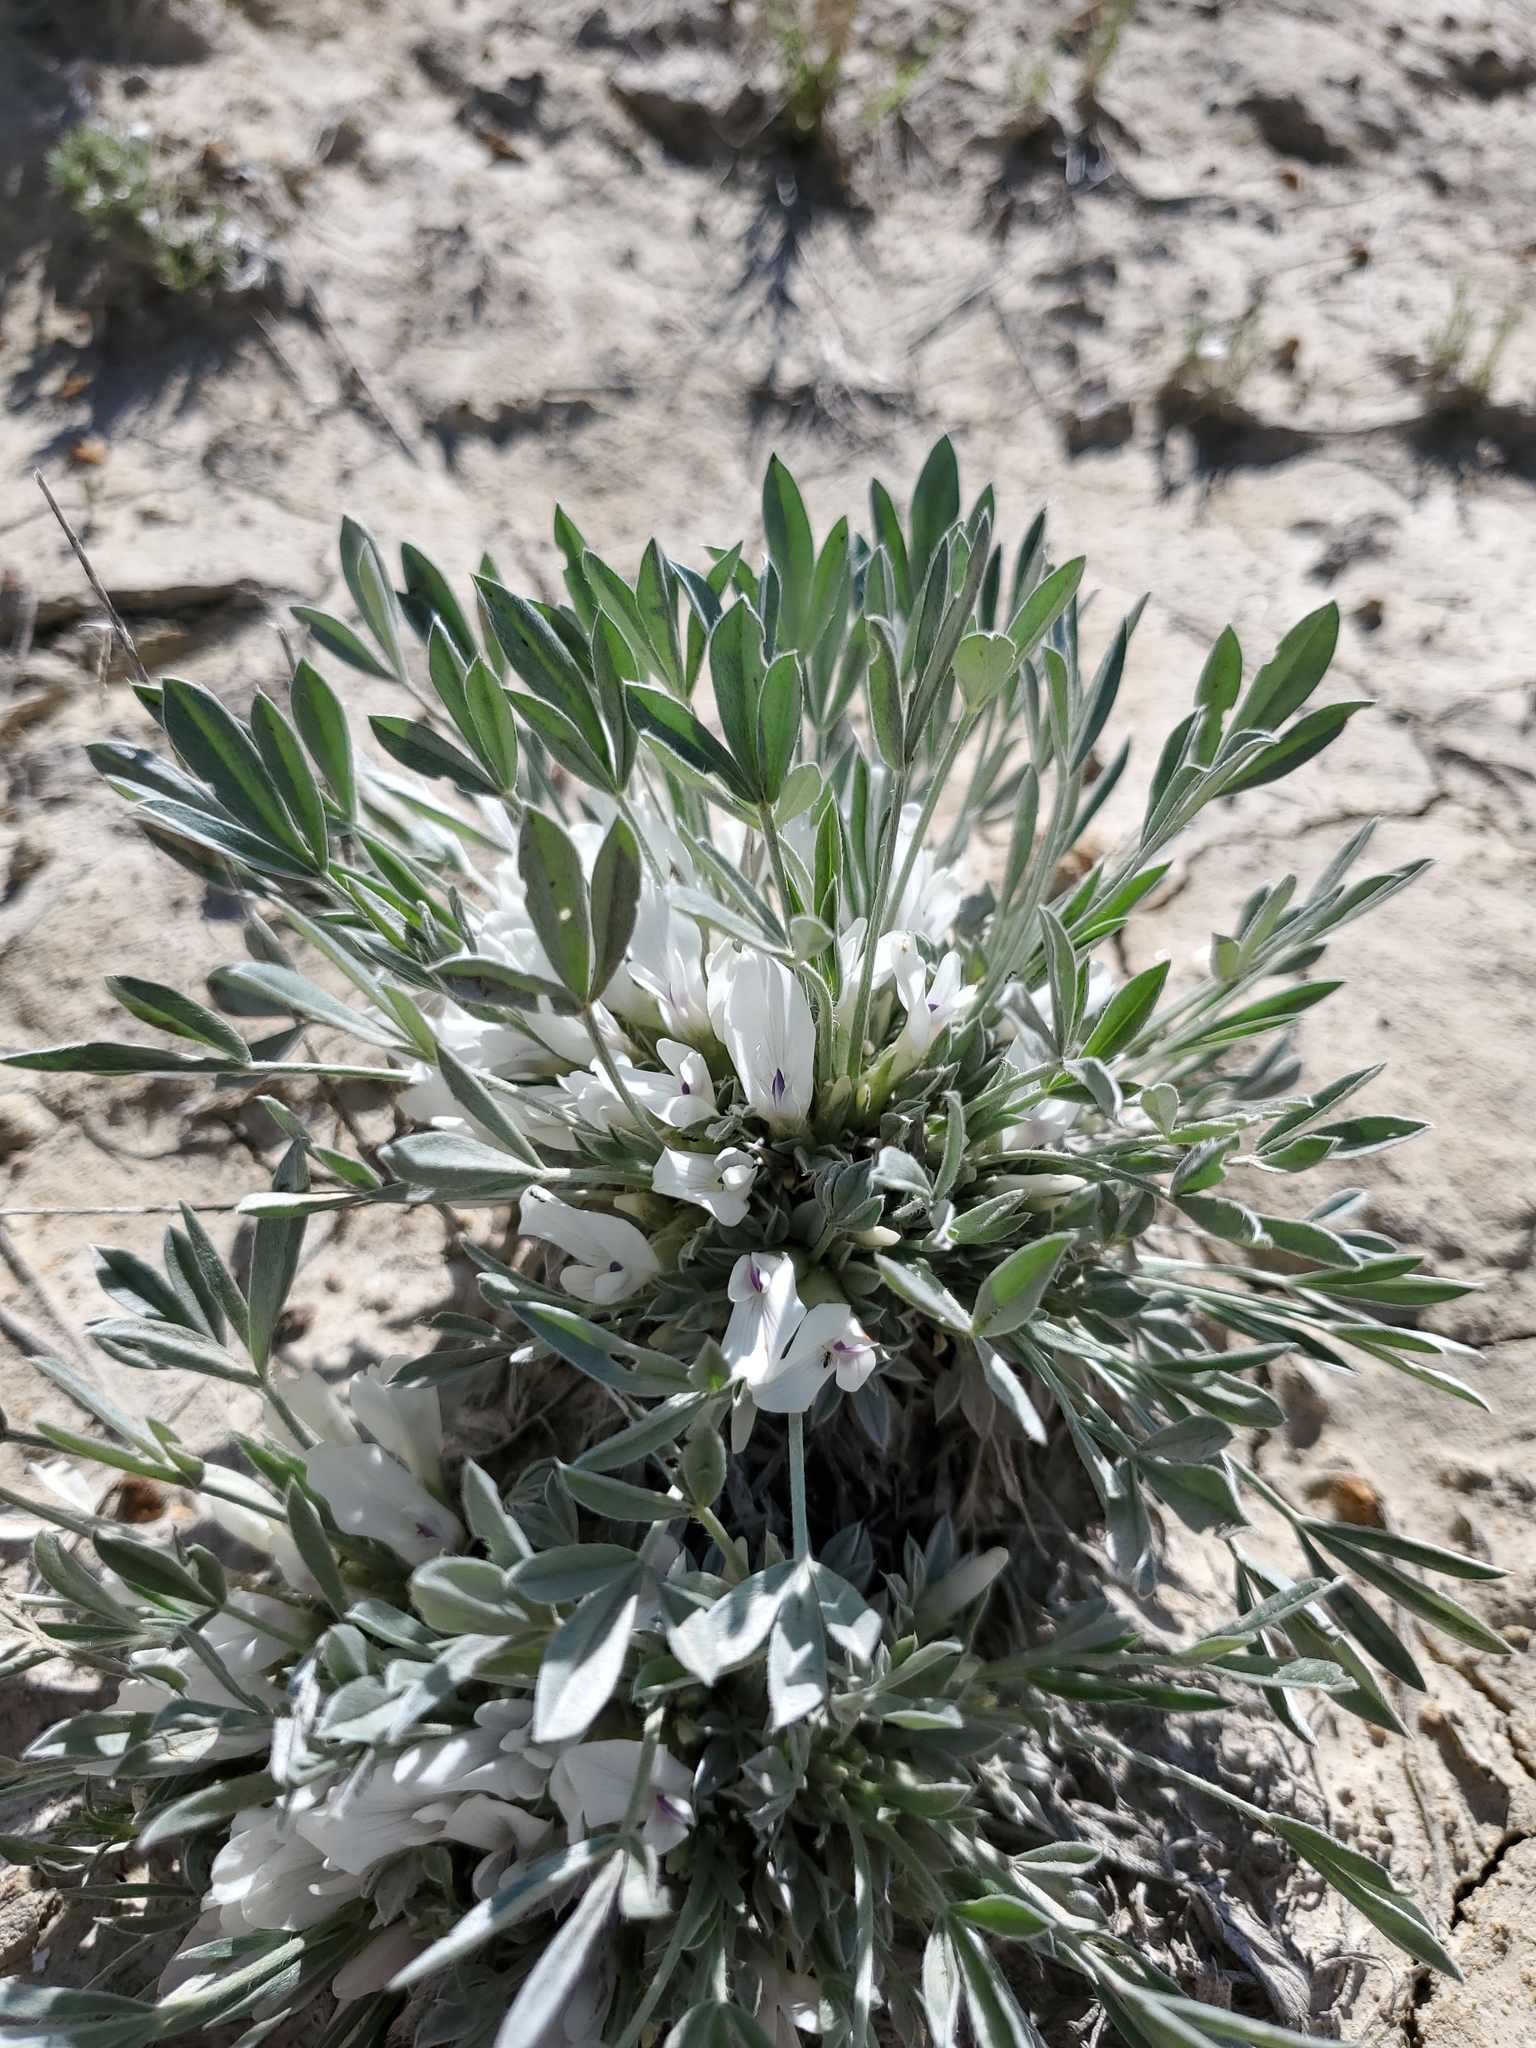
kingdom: Plantae
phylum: Tracheophyta
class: Magnoliopsida
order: Fabales
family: Fabaceae
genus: Astragalus
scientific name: Astragalus gilviflorus
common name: Cushion milk-vetch
